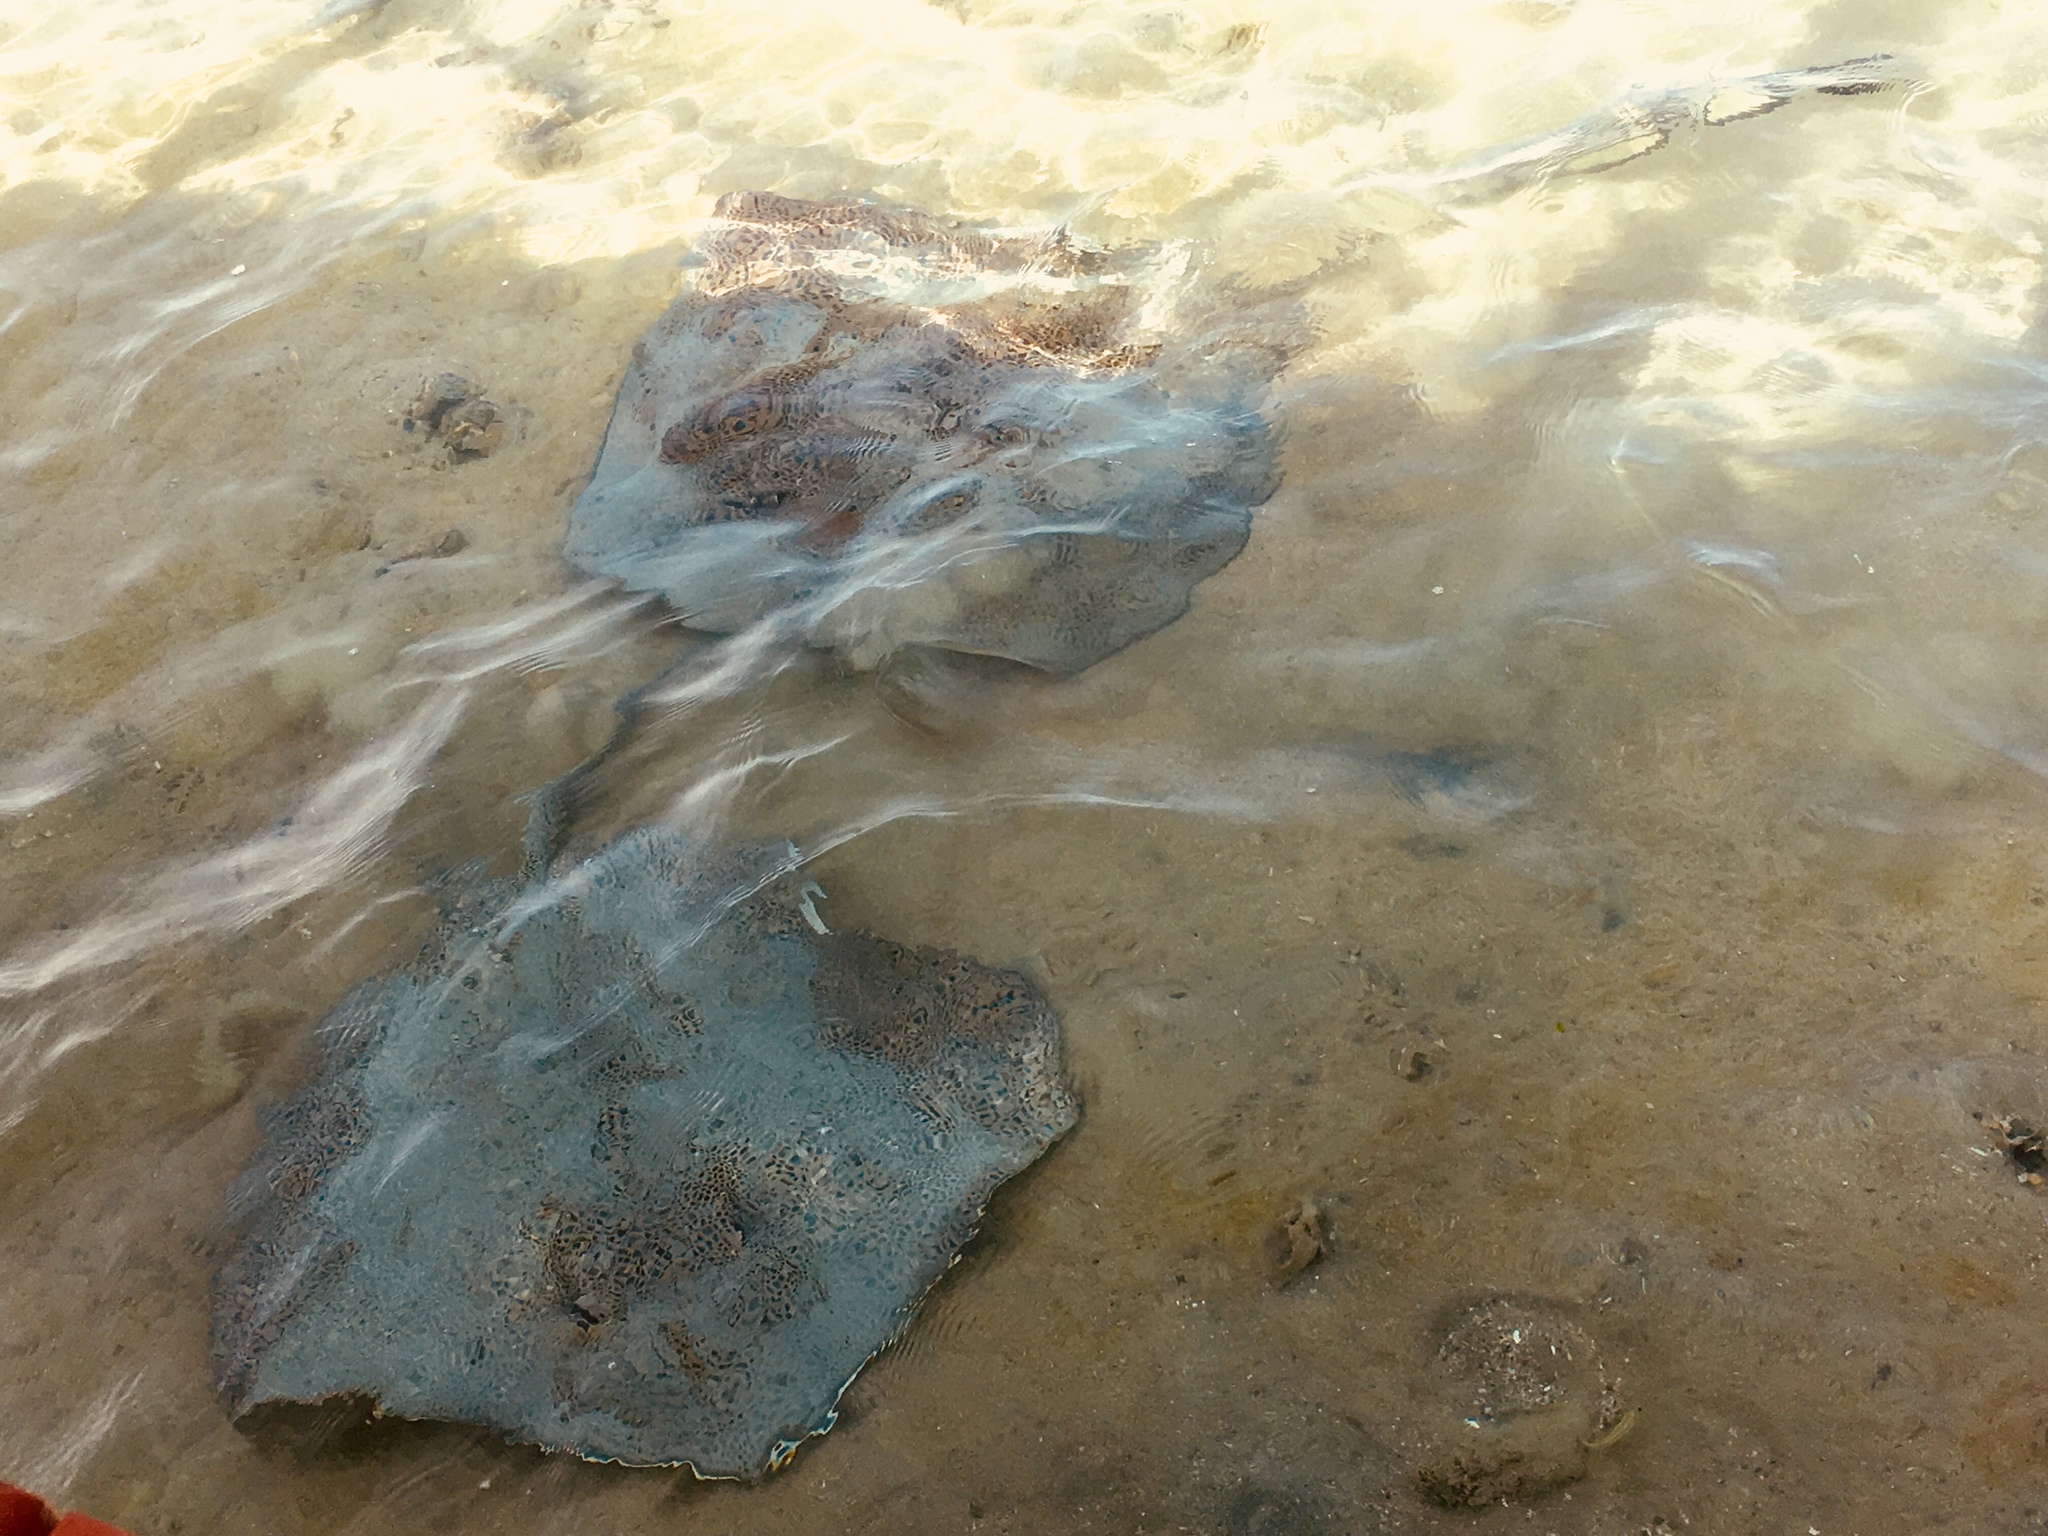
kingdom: Animalia
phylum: Chordata
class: Elasmobranchii
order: Myliobatiformes
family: Dasyatidae
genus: Himantura
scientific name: Himantura uarnak
